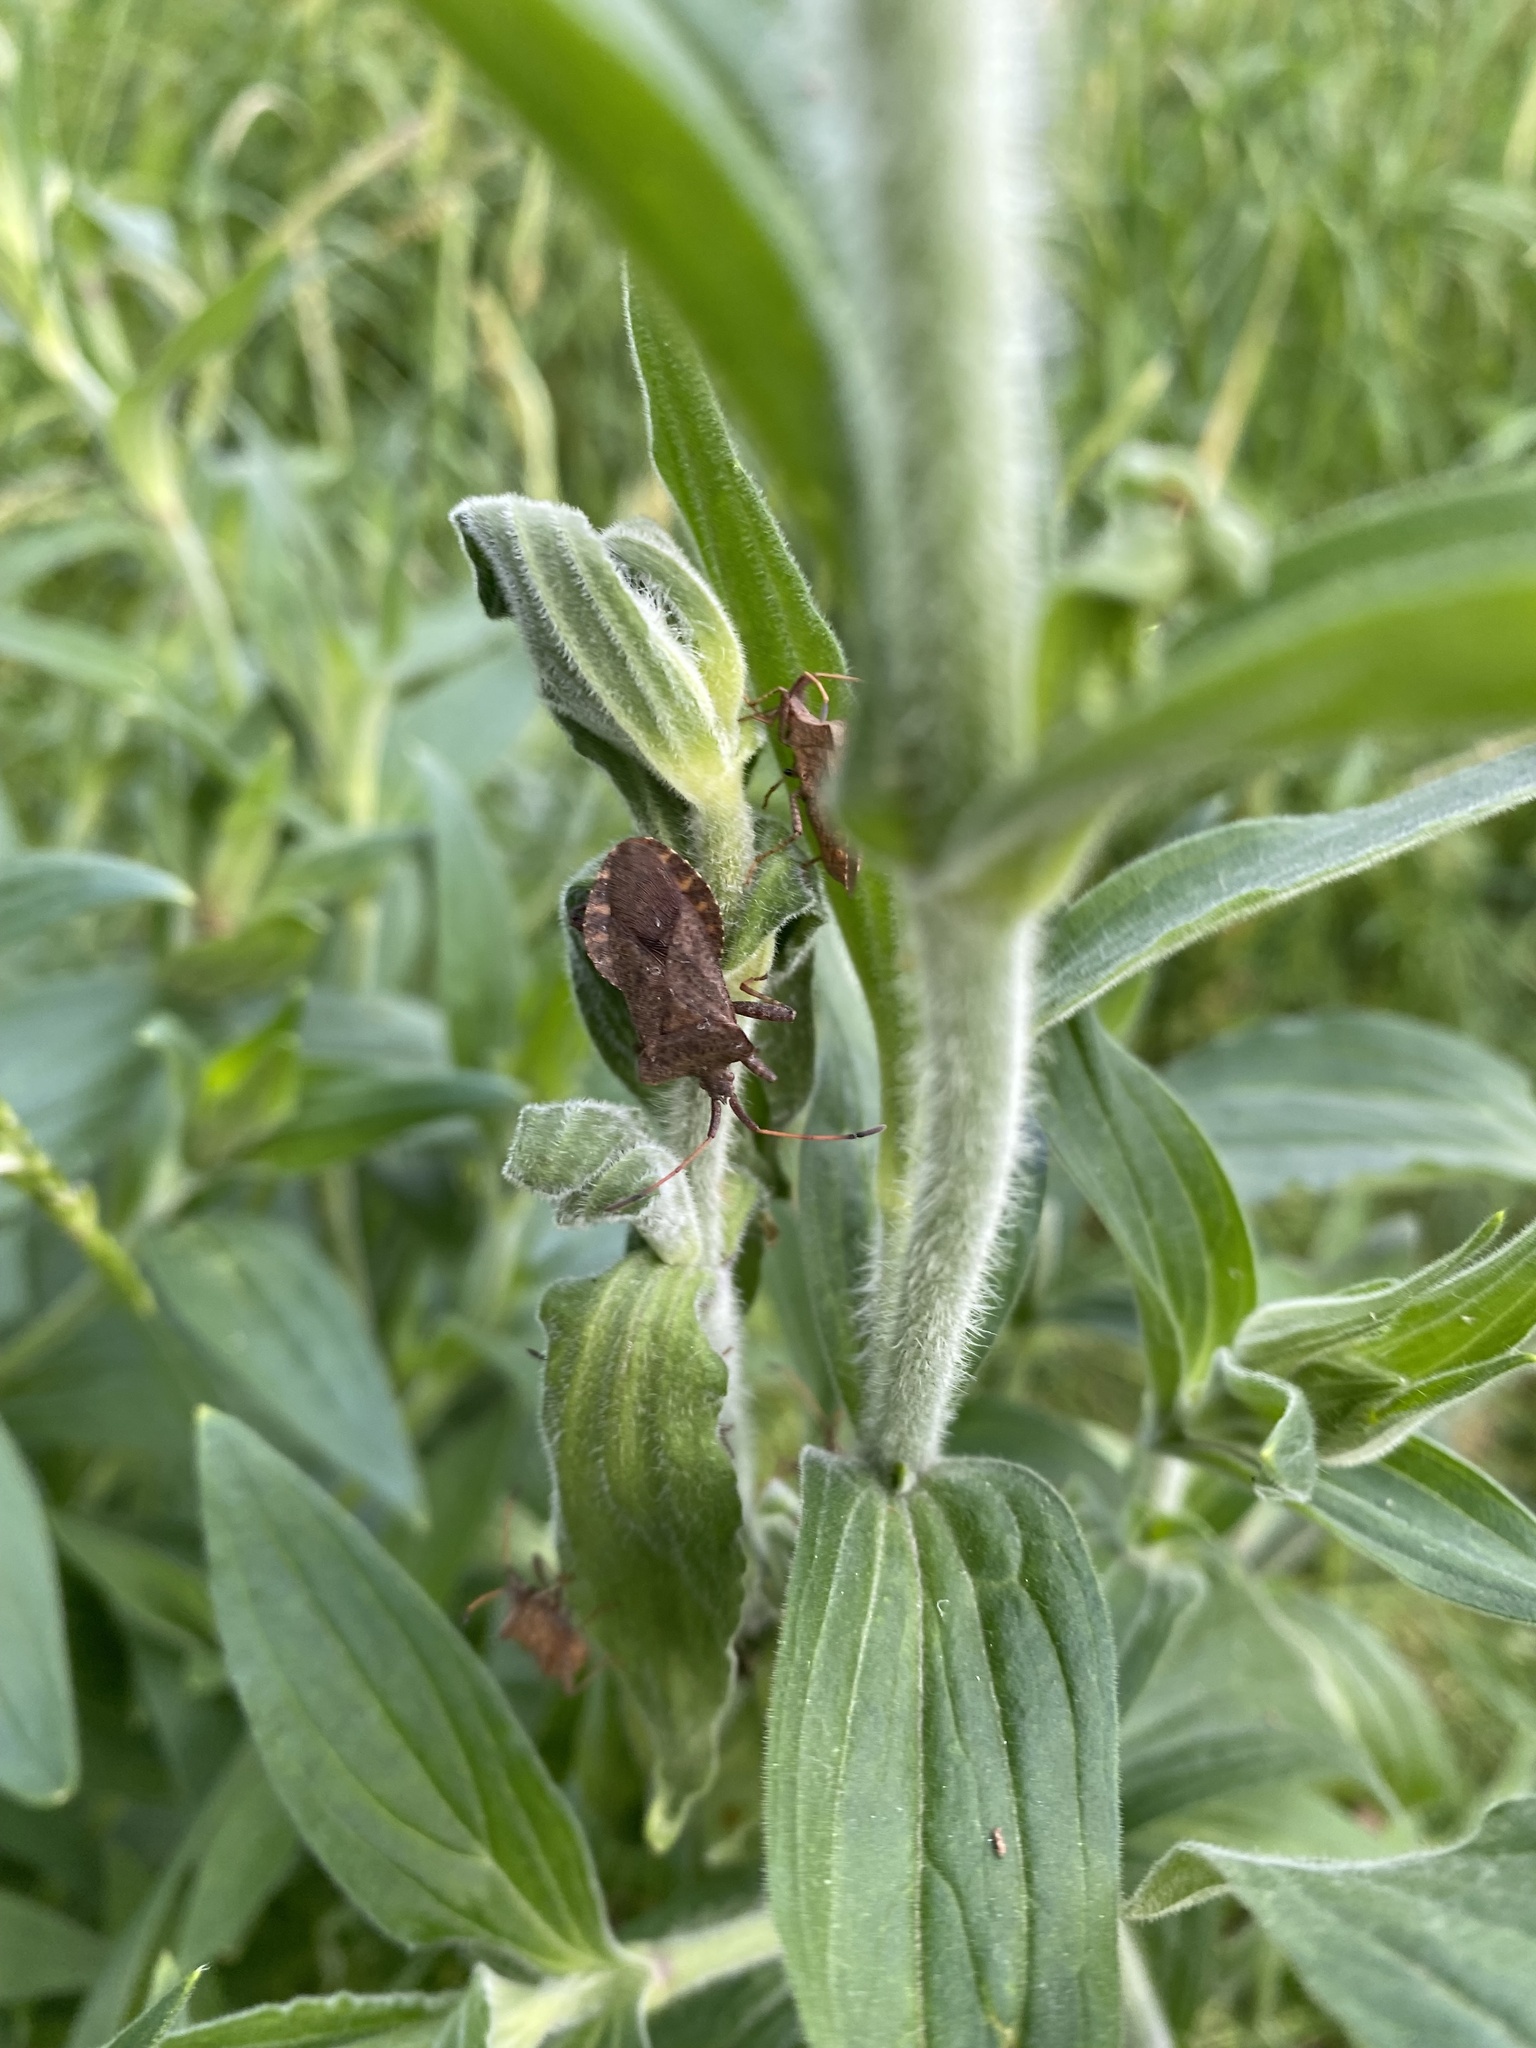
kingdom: Animalia
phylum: Arthropoda
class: Insecta
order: Hemiptera
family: Coreidae
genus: Coreus
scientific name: Coreus marginatus
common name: Dock bug
